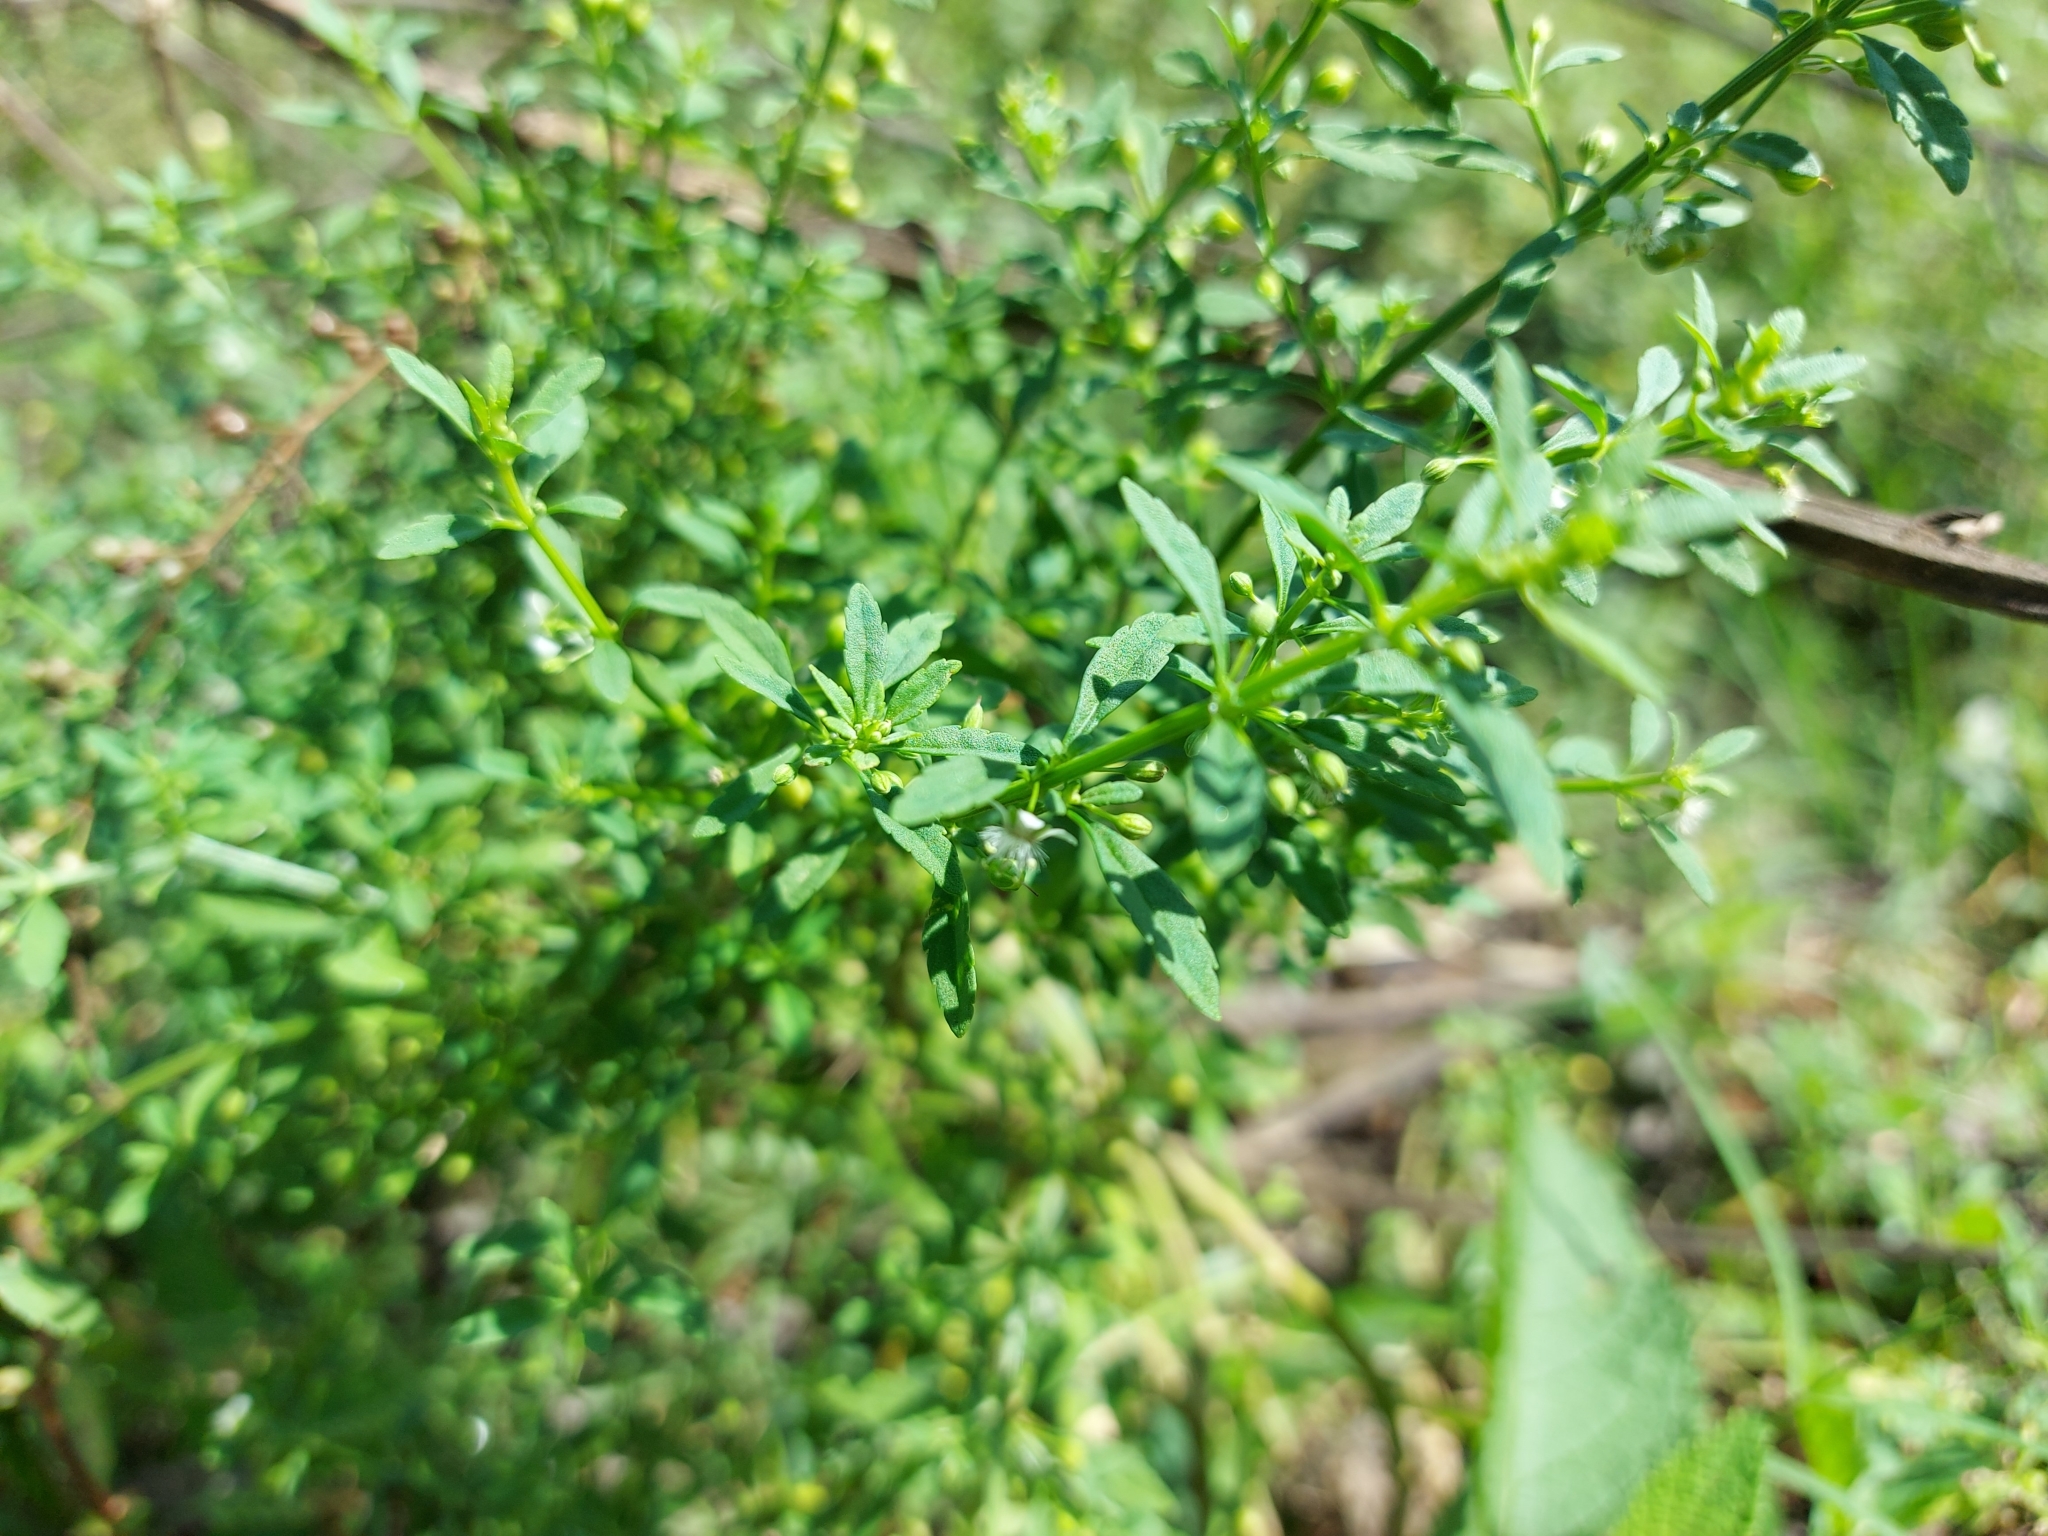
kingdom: Plantae
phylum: Tracheophyta
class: Magnoliopsida
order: Lamiales
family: Plantaginaceae
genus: Scoparia
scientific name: Scoparia dulcis
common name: Scoparia-weed
